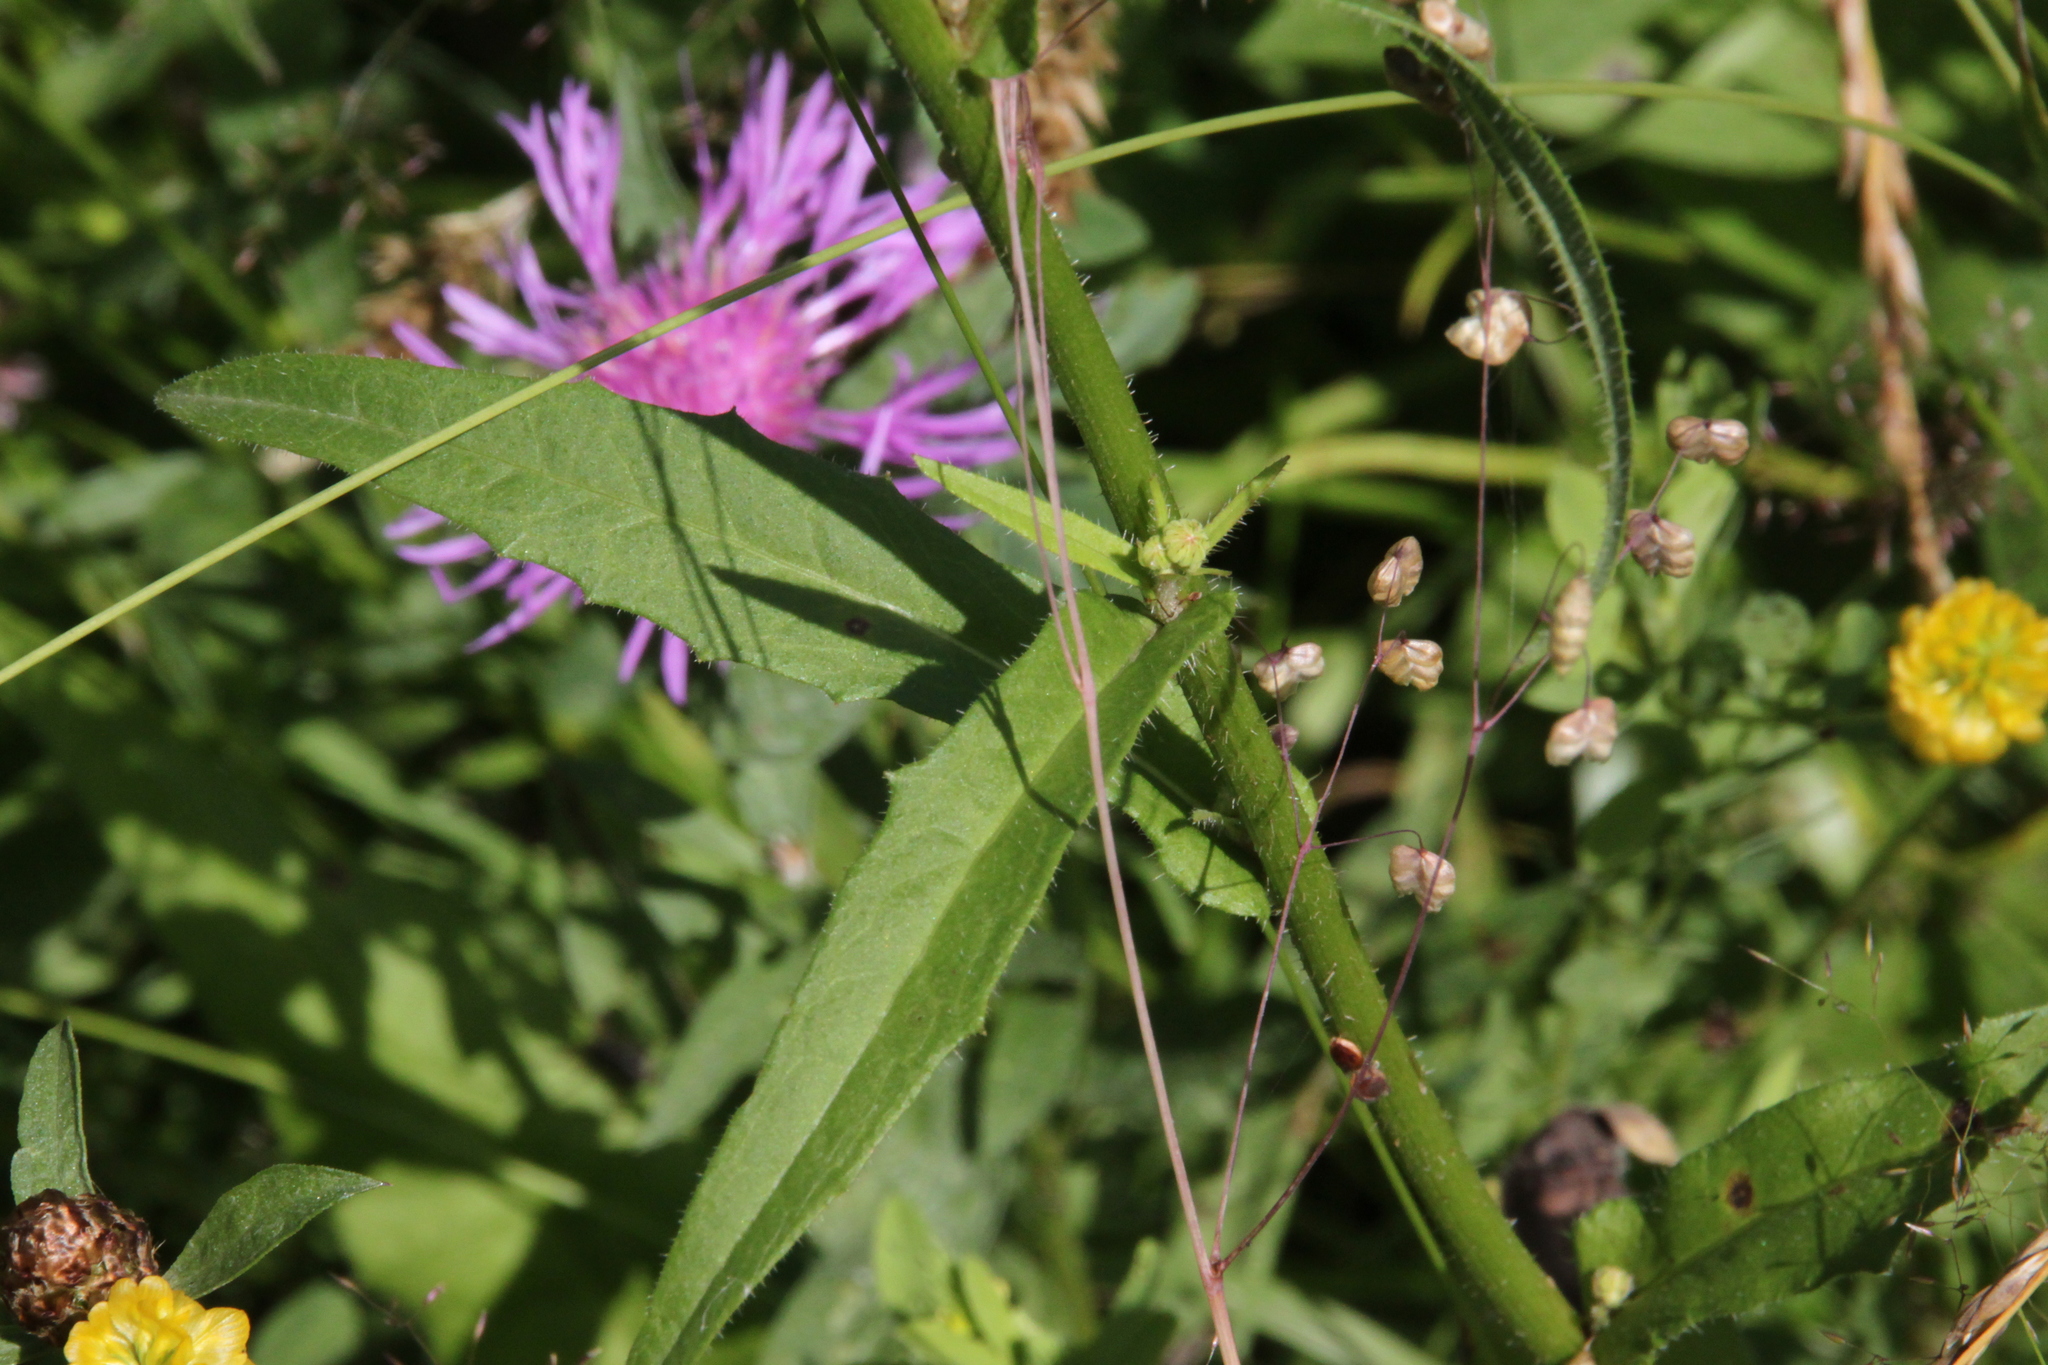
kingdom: Plantae
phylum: Tracheophyta
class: Magnoliopsida
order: Asterales
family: Asteraceae
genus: Centaurea
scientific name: Centaurea jacea
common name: Brown knapweed
